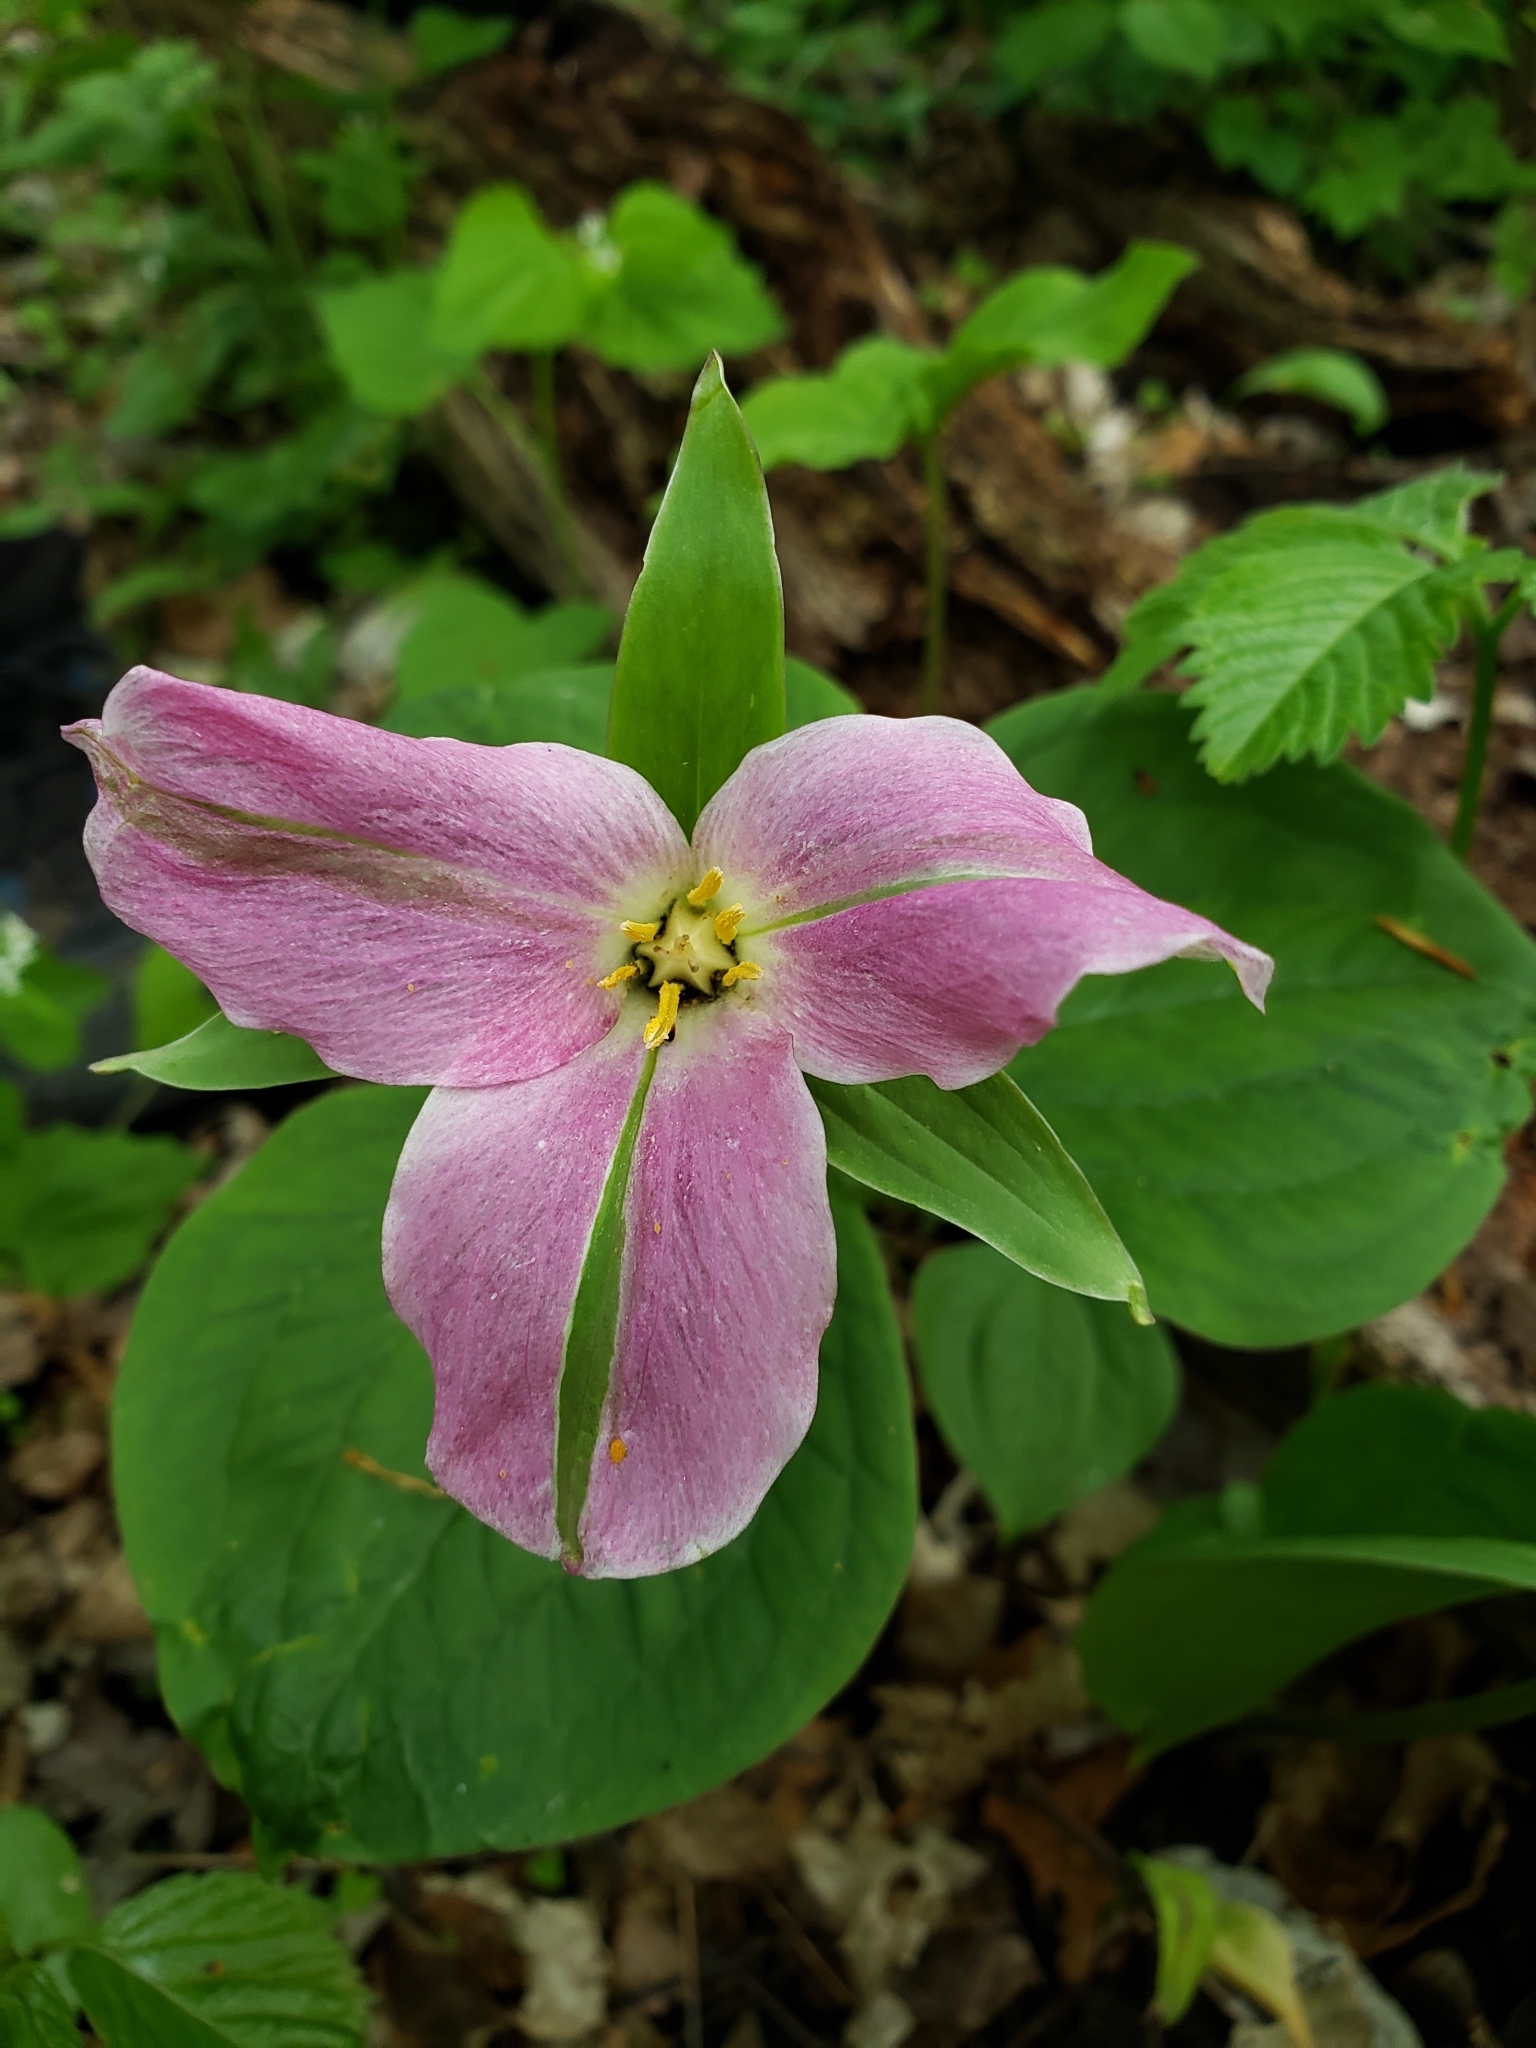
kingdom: Plantae
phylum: Tracheophyta
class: Liliopsida
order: Liliales
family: Melanthiaceae
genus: Trillium
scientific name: Trillium grandiflorum
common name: Great white trillium
